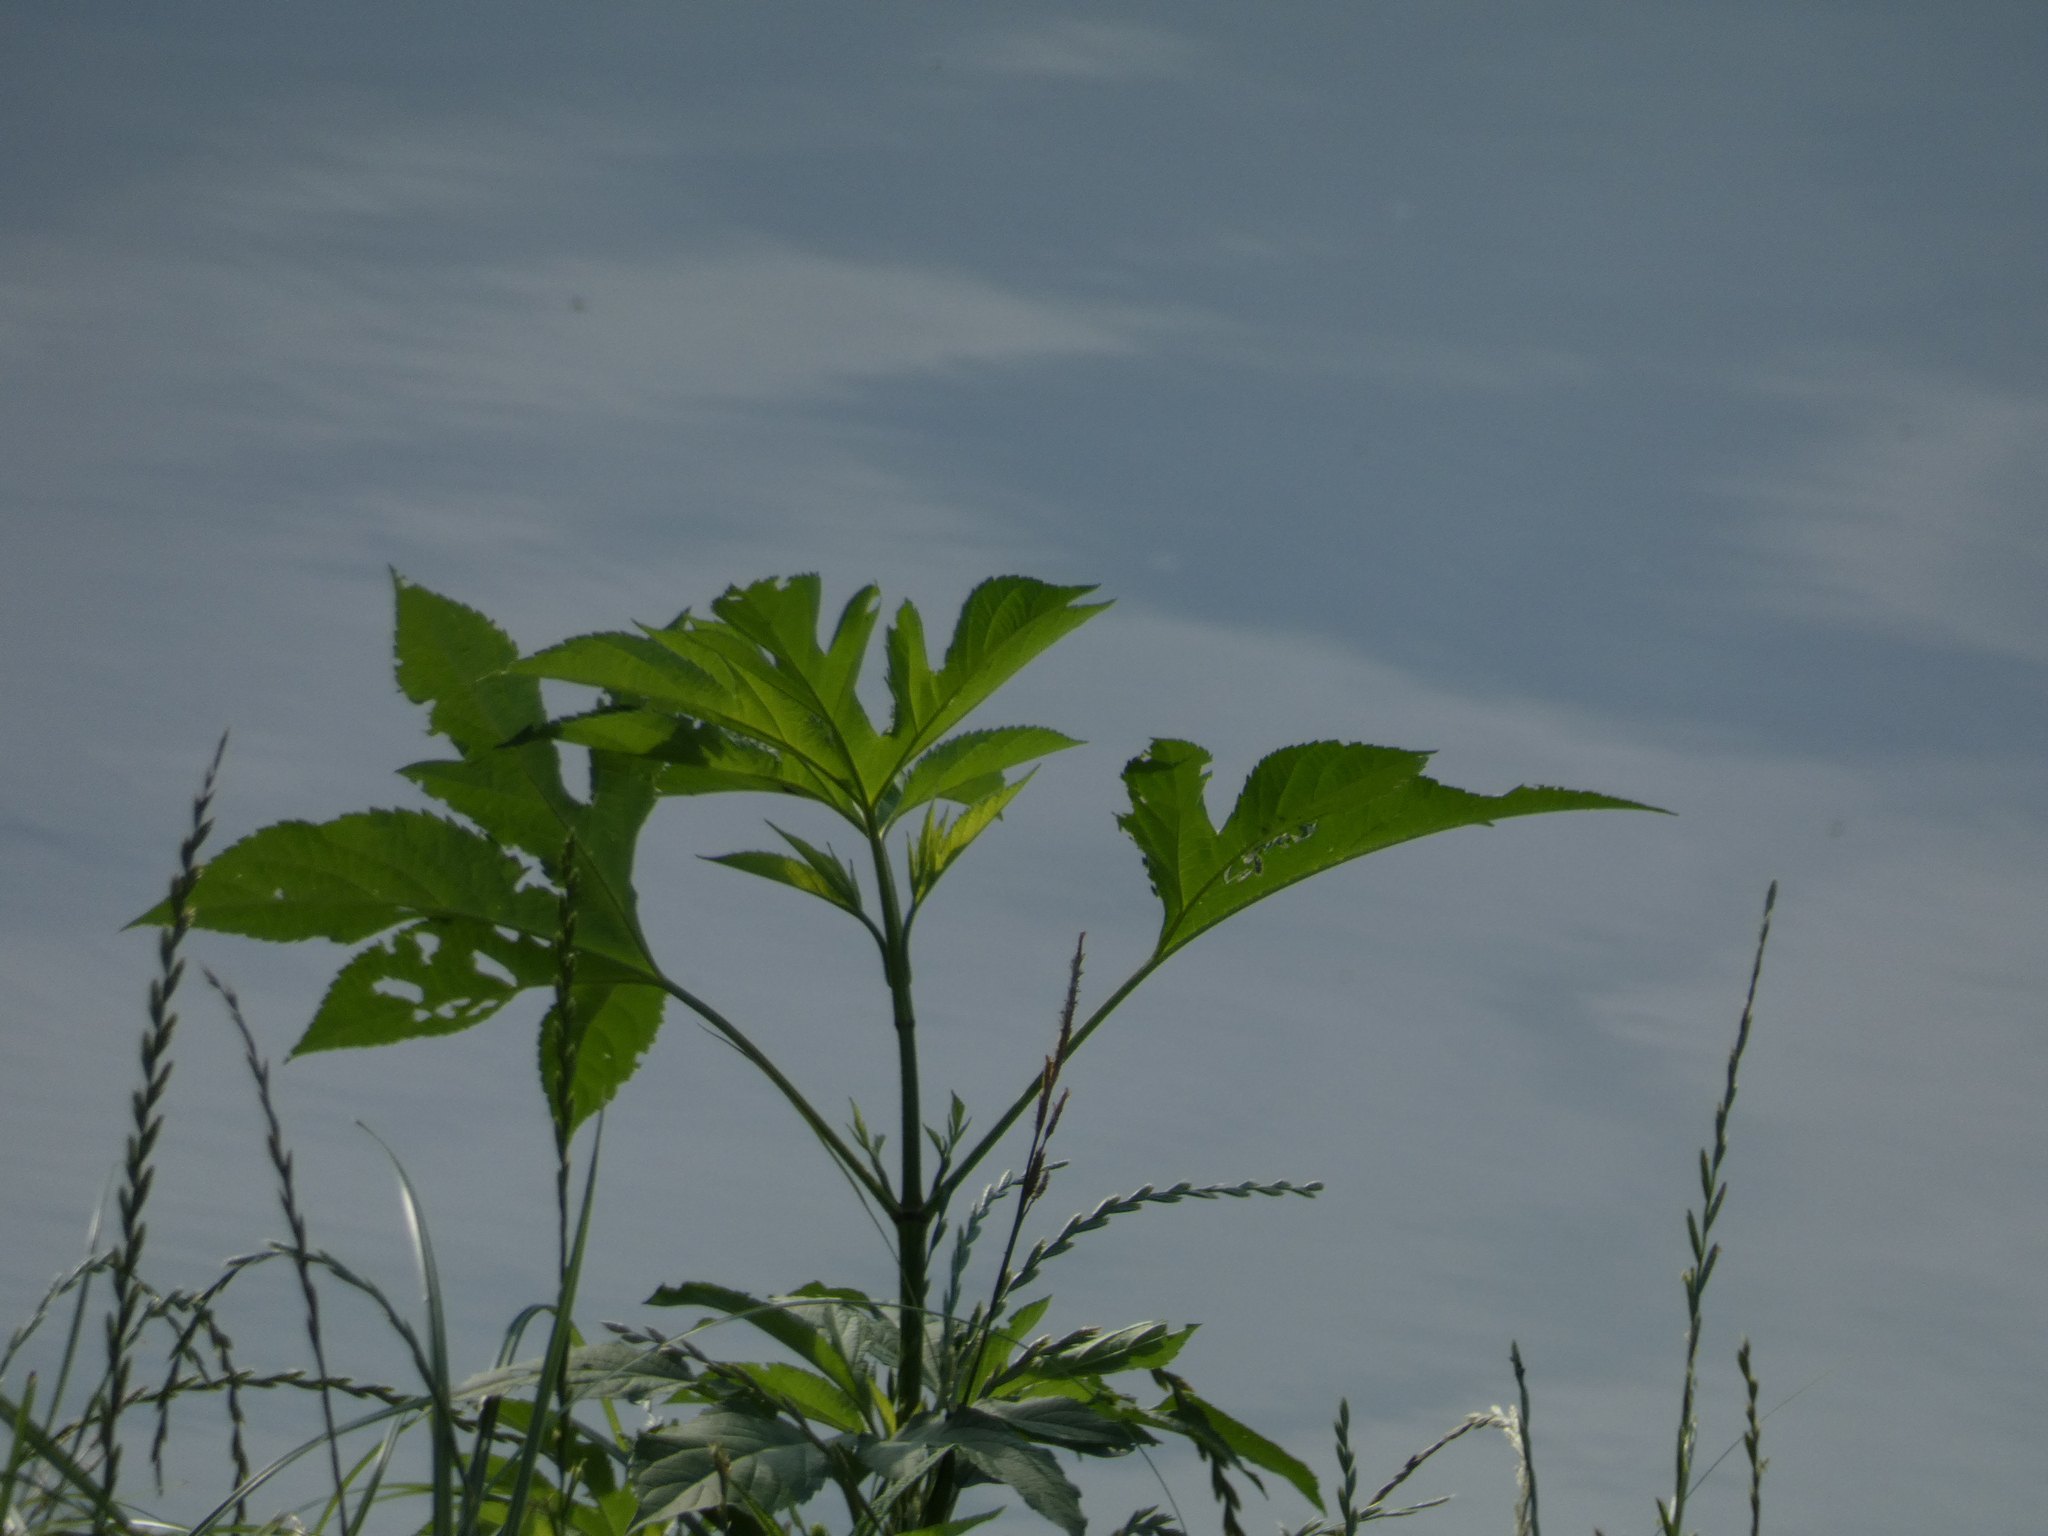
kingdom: Plantae
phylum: Tracheophyta
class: Magnoliopsida
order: Asterales
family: Asteraceae
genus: Ambrosia
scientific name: Ambrosia trifida
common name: Giant ragweed
